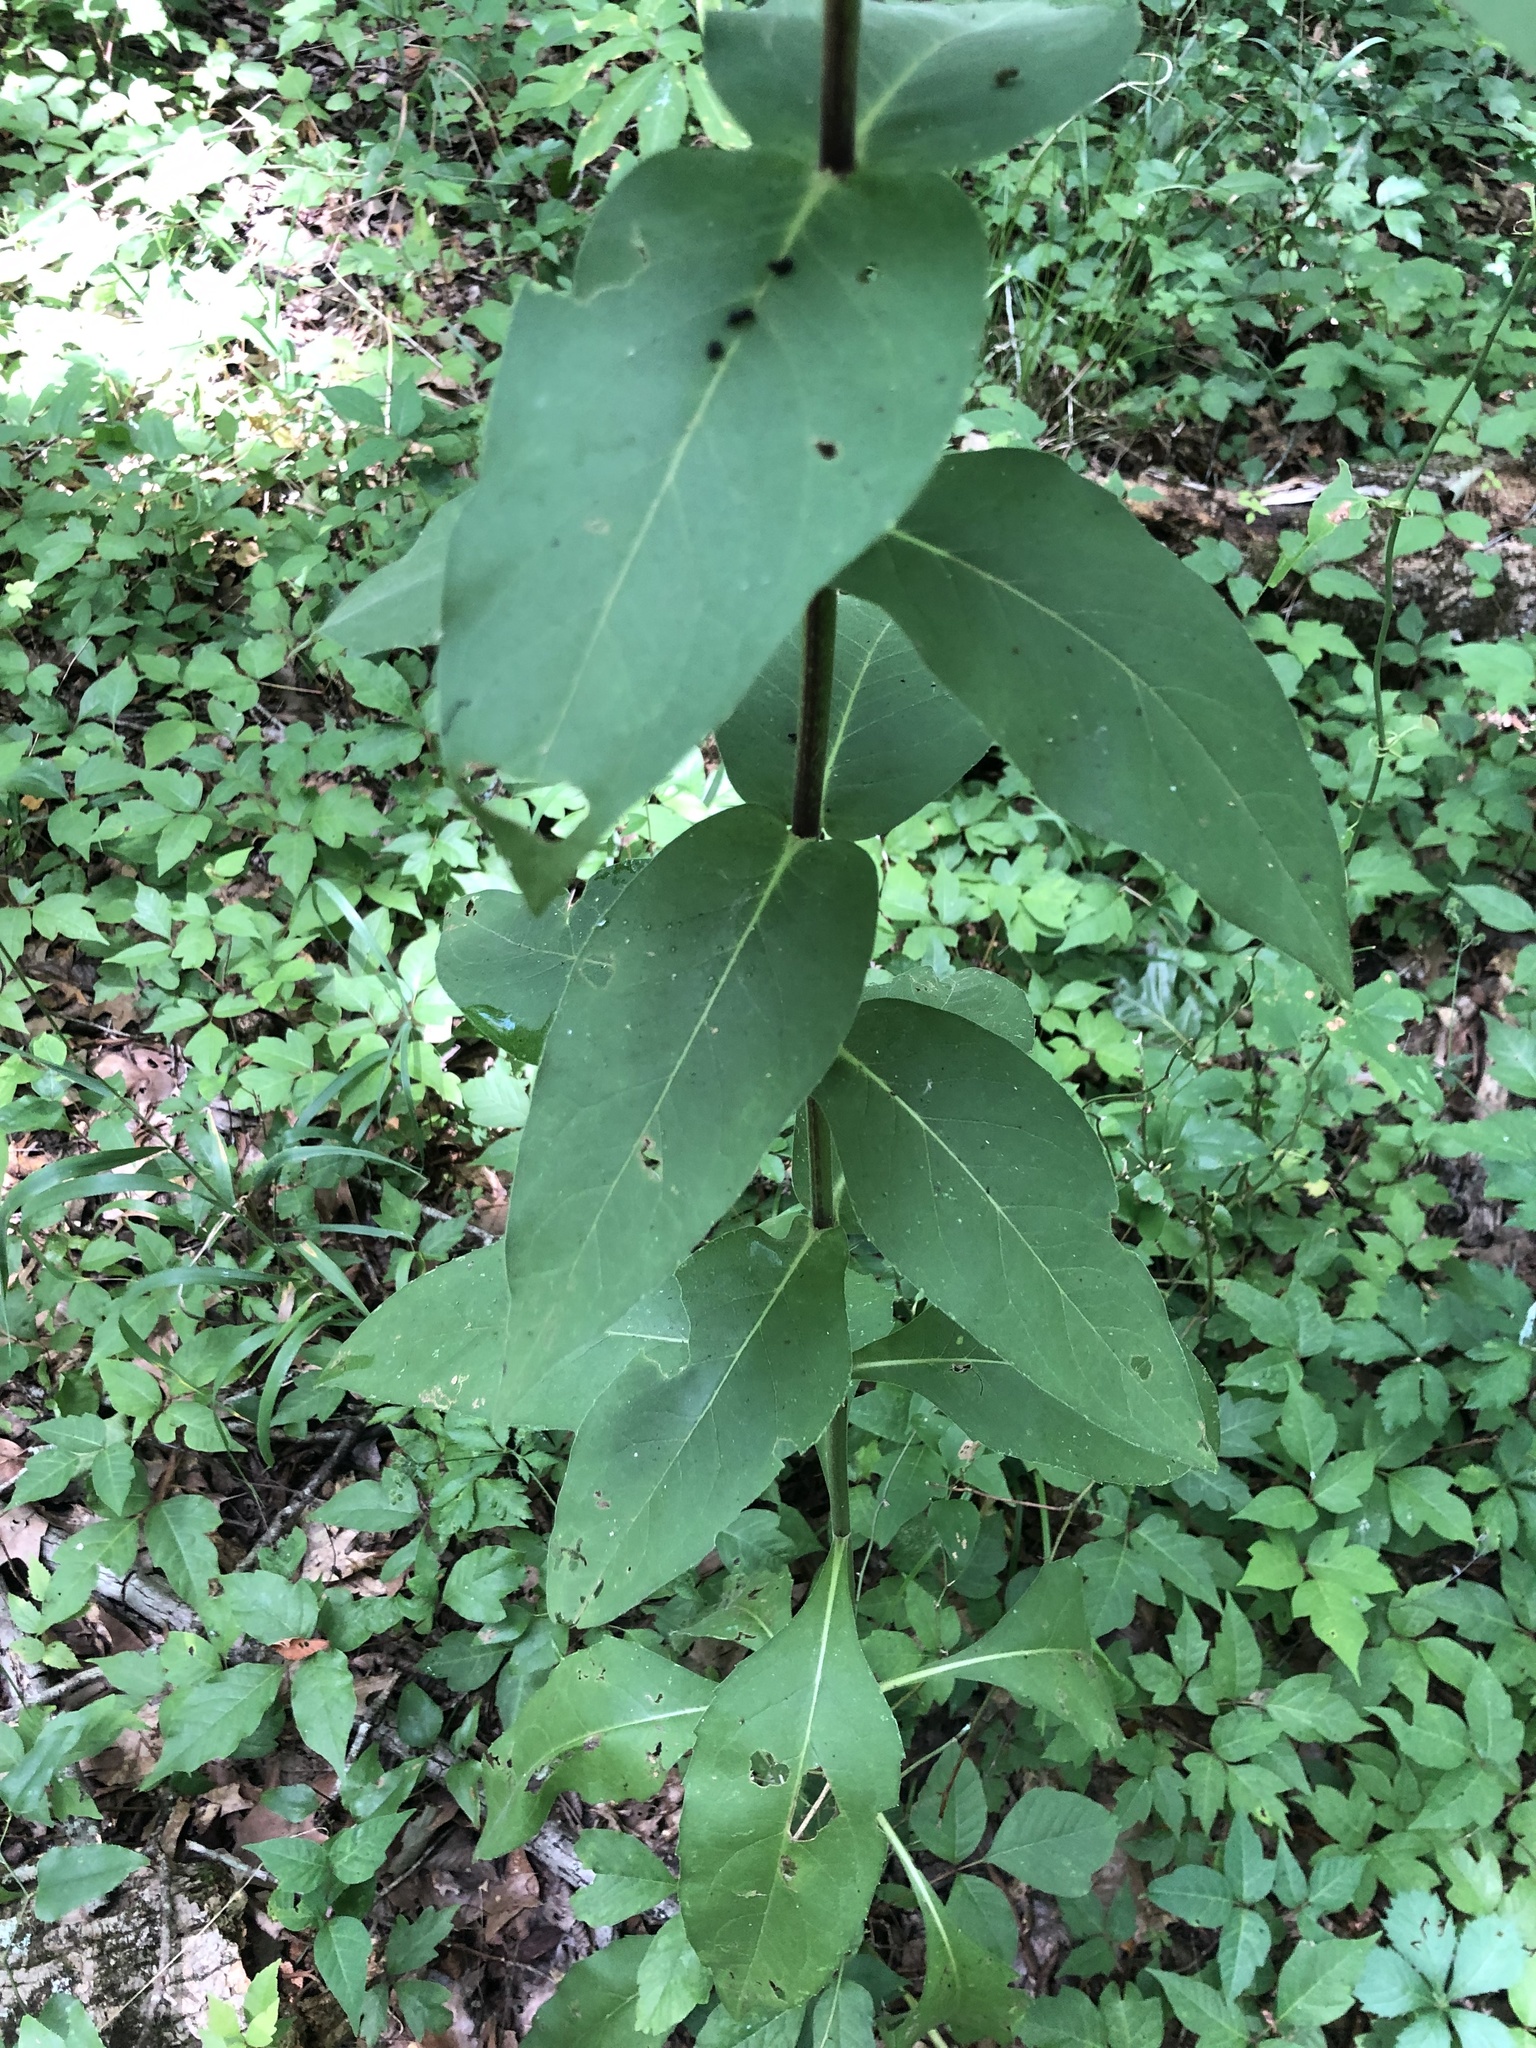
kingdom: Plantae
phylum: Tracheophyta
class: Magnoliopsida
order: Asterales
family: Asteraceae
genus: Silphium
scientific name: Silphium integrifolium
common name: Whole-leaf rosinweed
